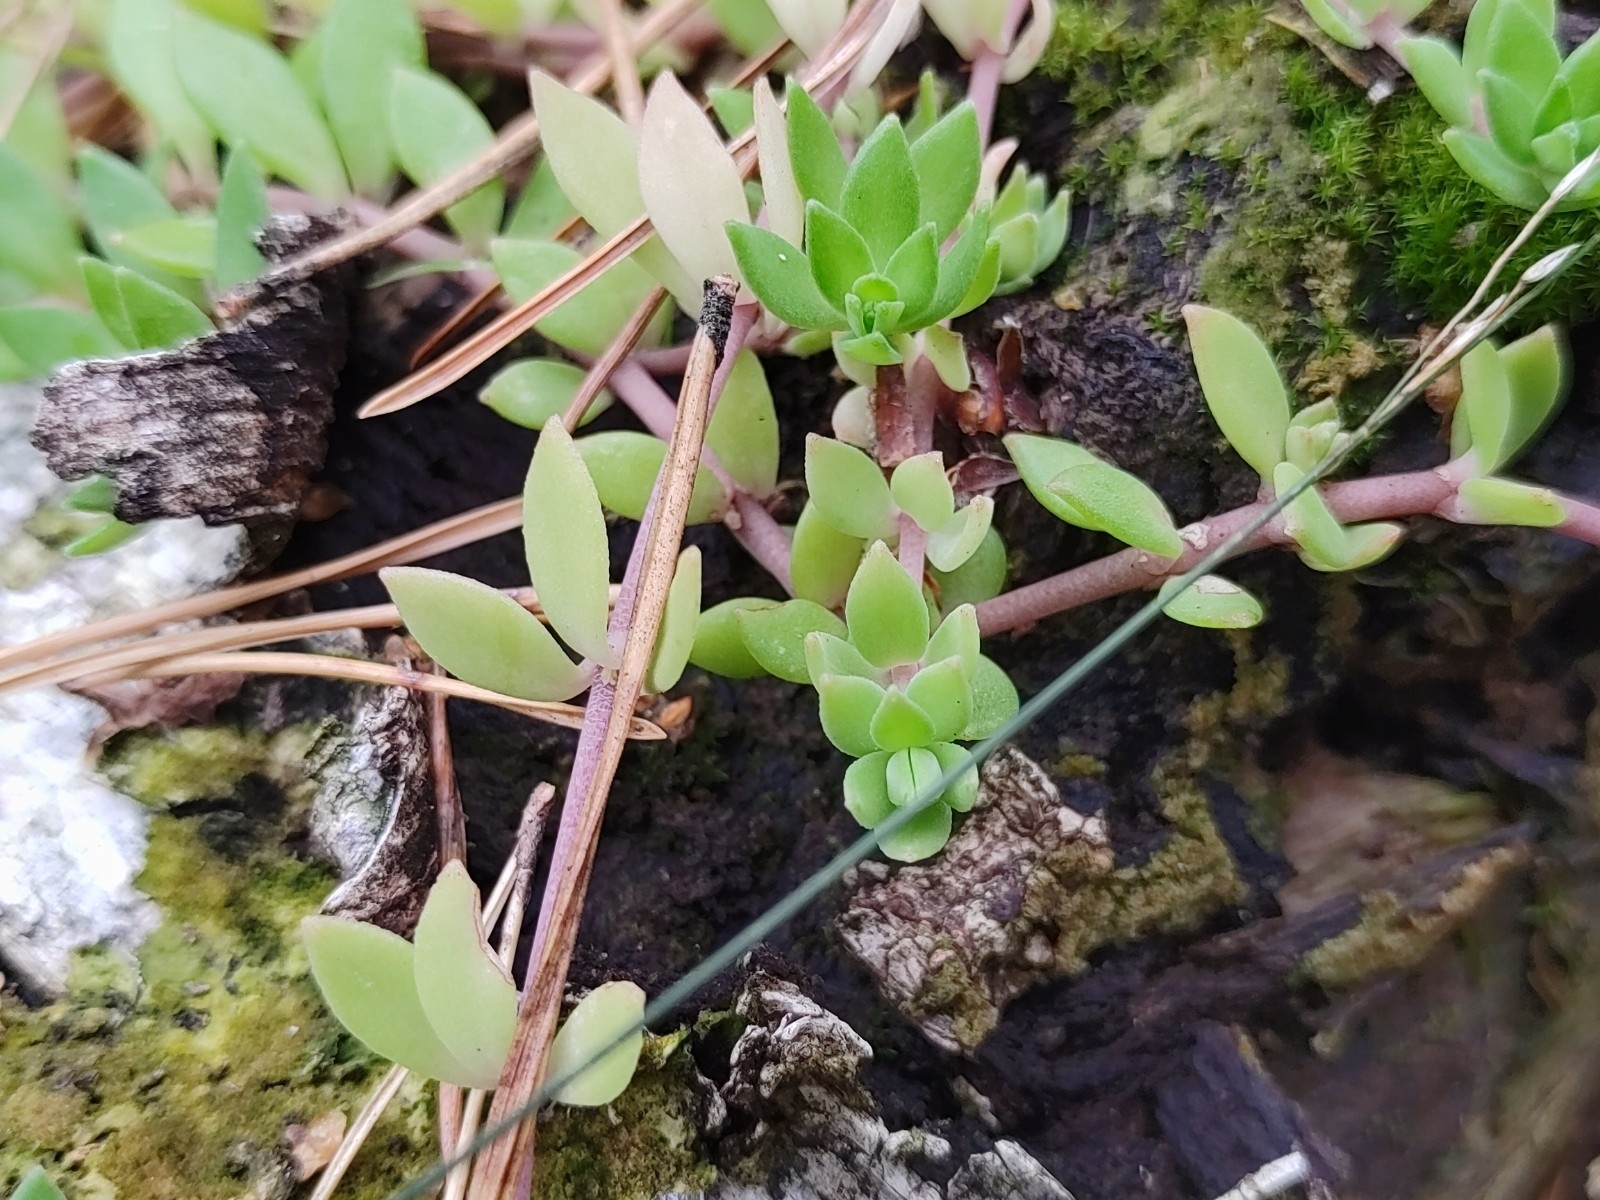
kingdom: Plantae
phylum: Tracheophyta
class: Magnoliopsida
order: Saxifragales
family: Crassulaceae
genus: Sedum
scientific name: Sedum sarmentosum
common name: Stringy stonecrop
